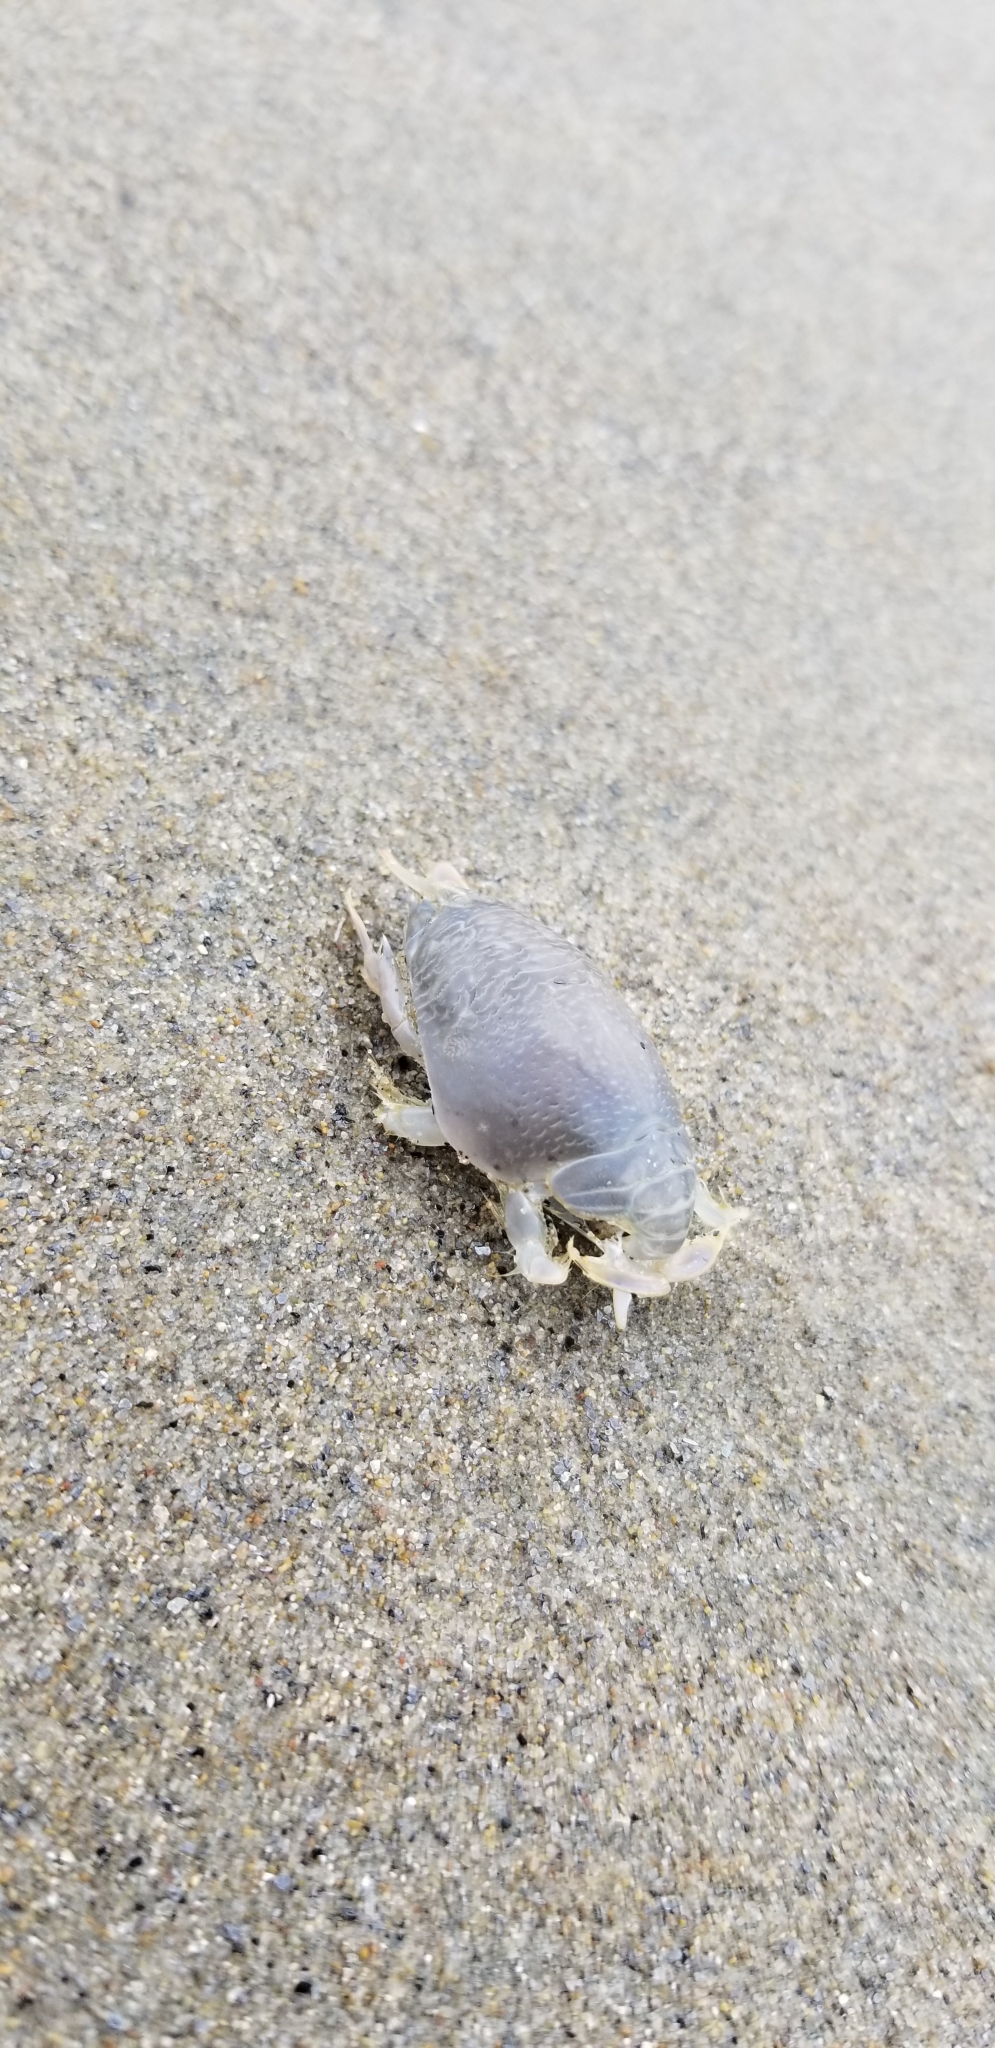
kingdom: Animalia
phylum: Arthropoda
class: Malacostraca
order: Decapoda
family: Hippidae
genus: Emerita
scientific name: Emerita analoga
